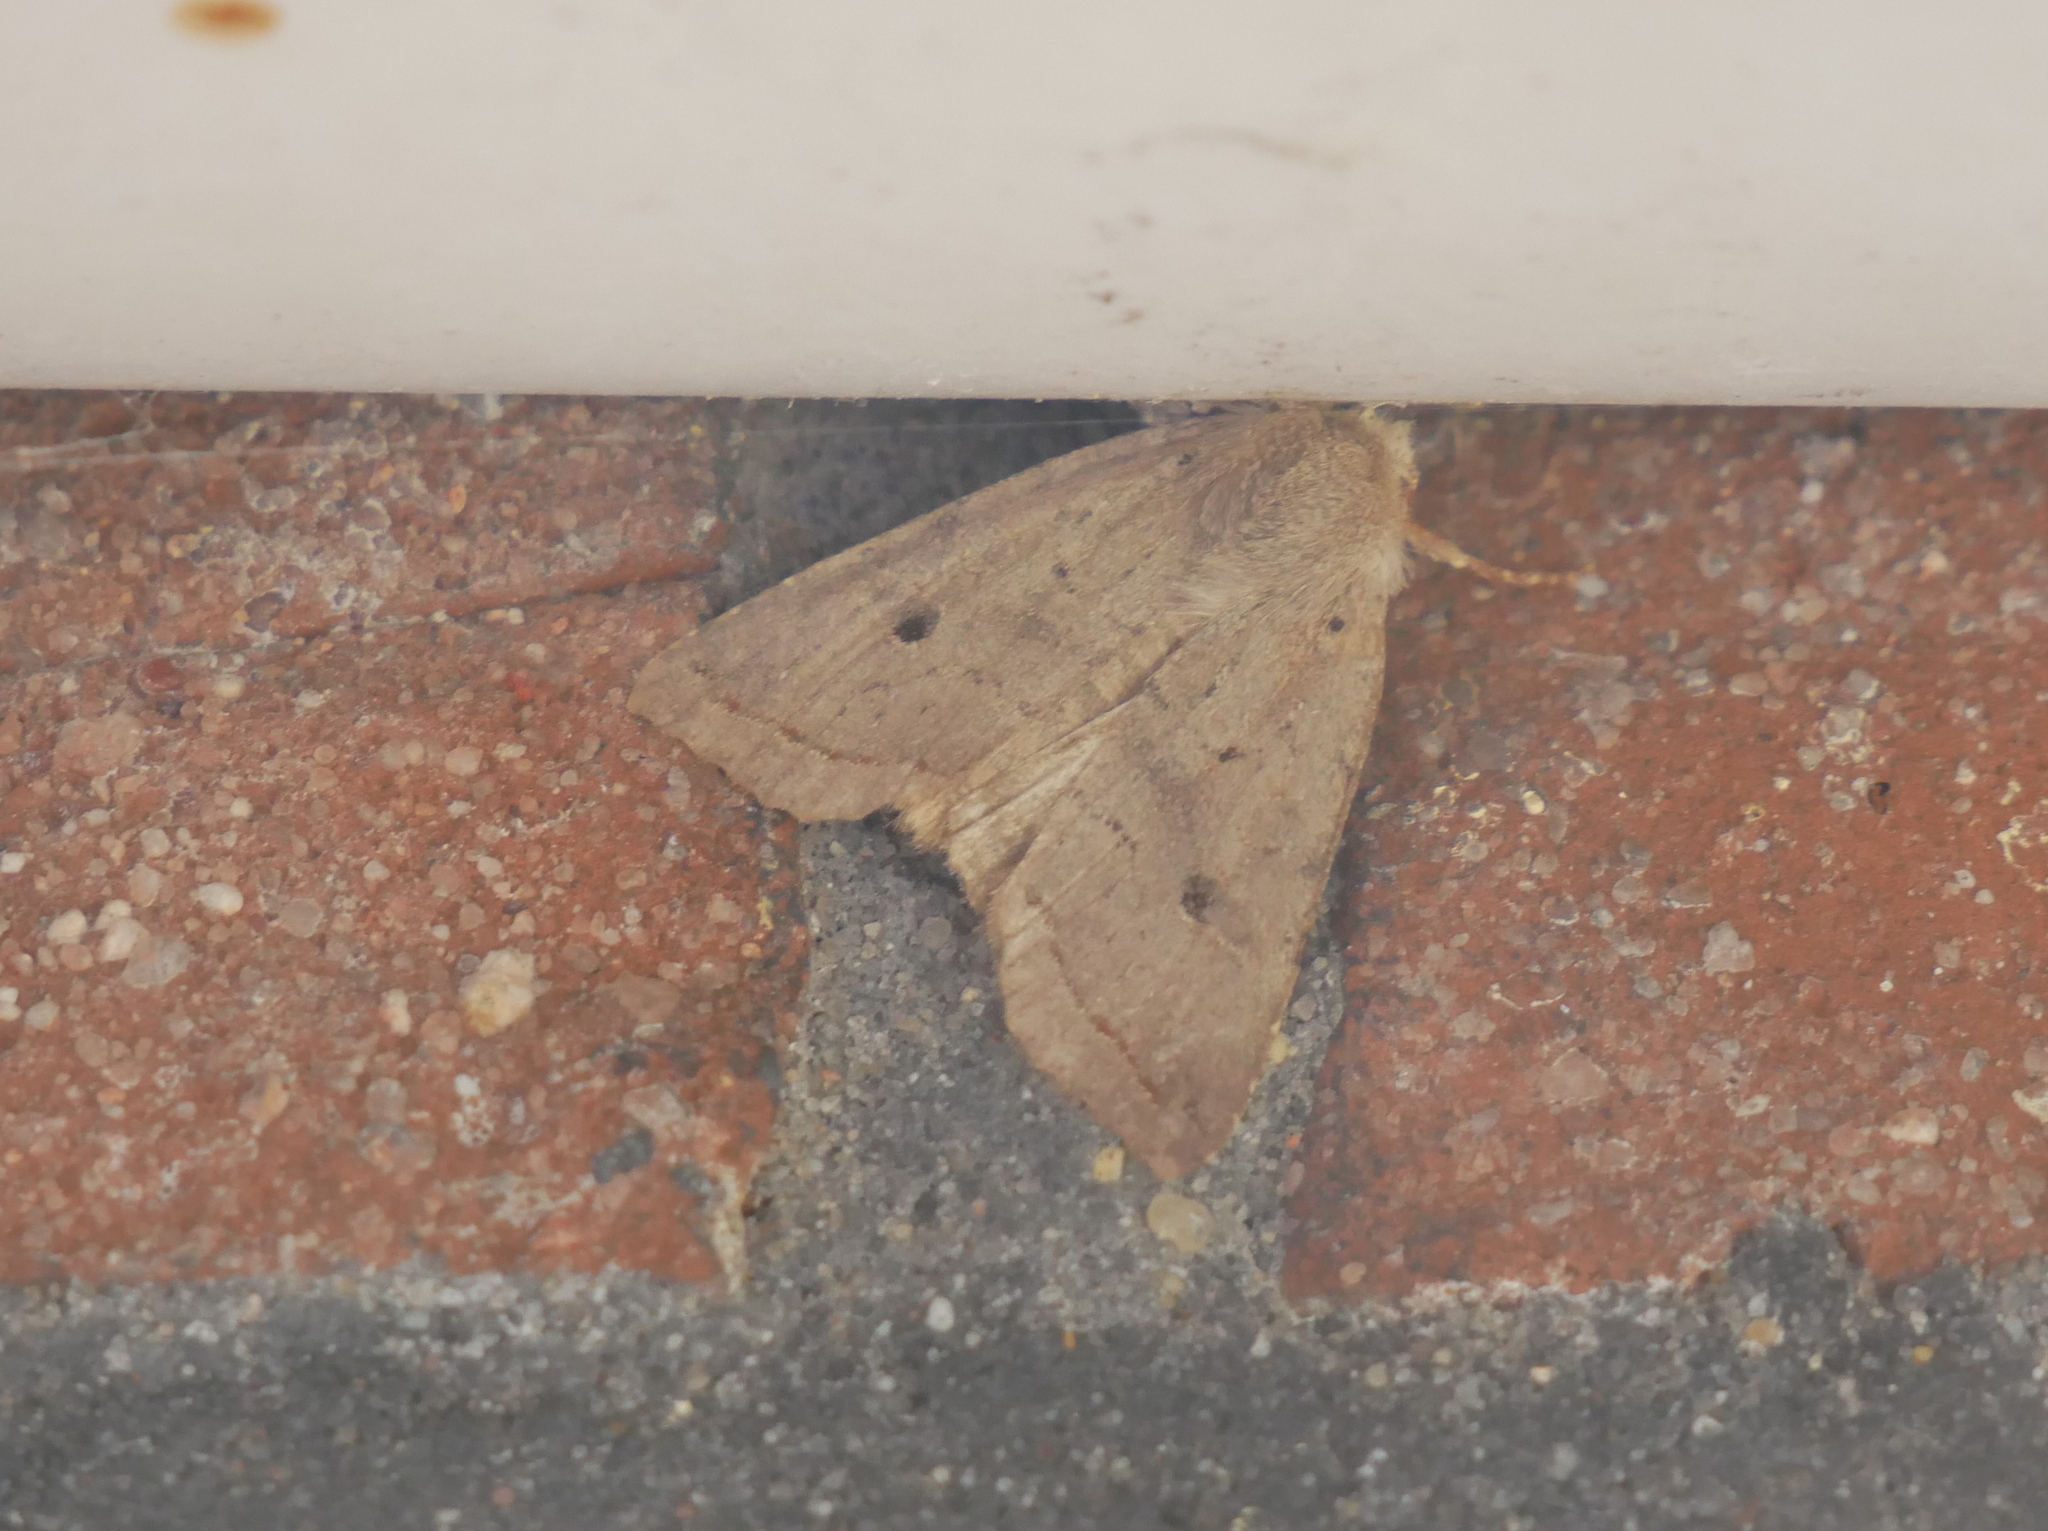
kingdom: Animalia
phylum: Arthropoda
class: Insecta
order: Lepidoptera
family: Noctuidae
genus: Agrochola
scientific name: Agrochola macilenta
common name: Yellow-line quaker
